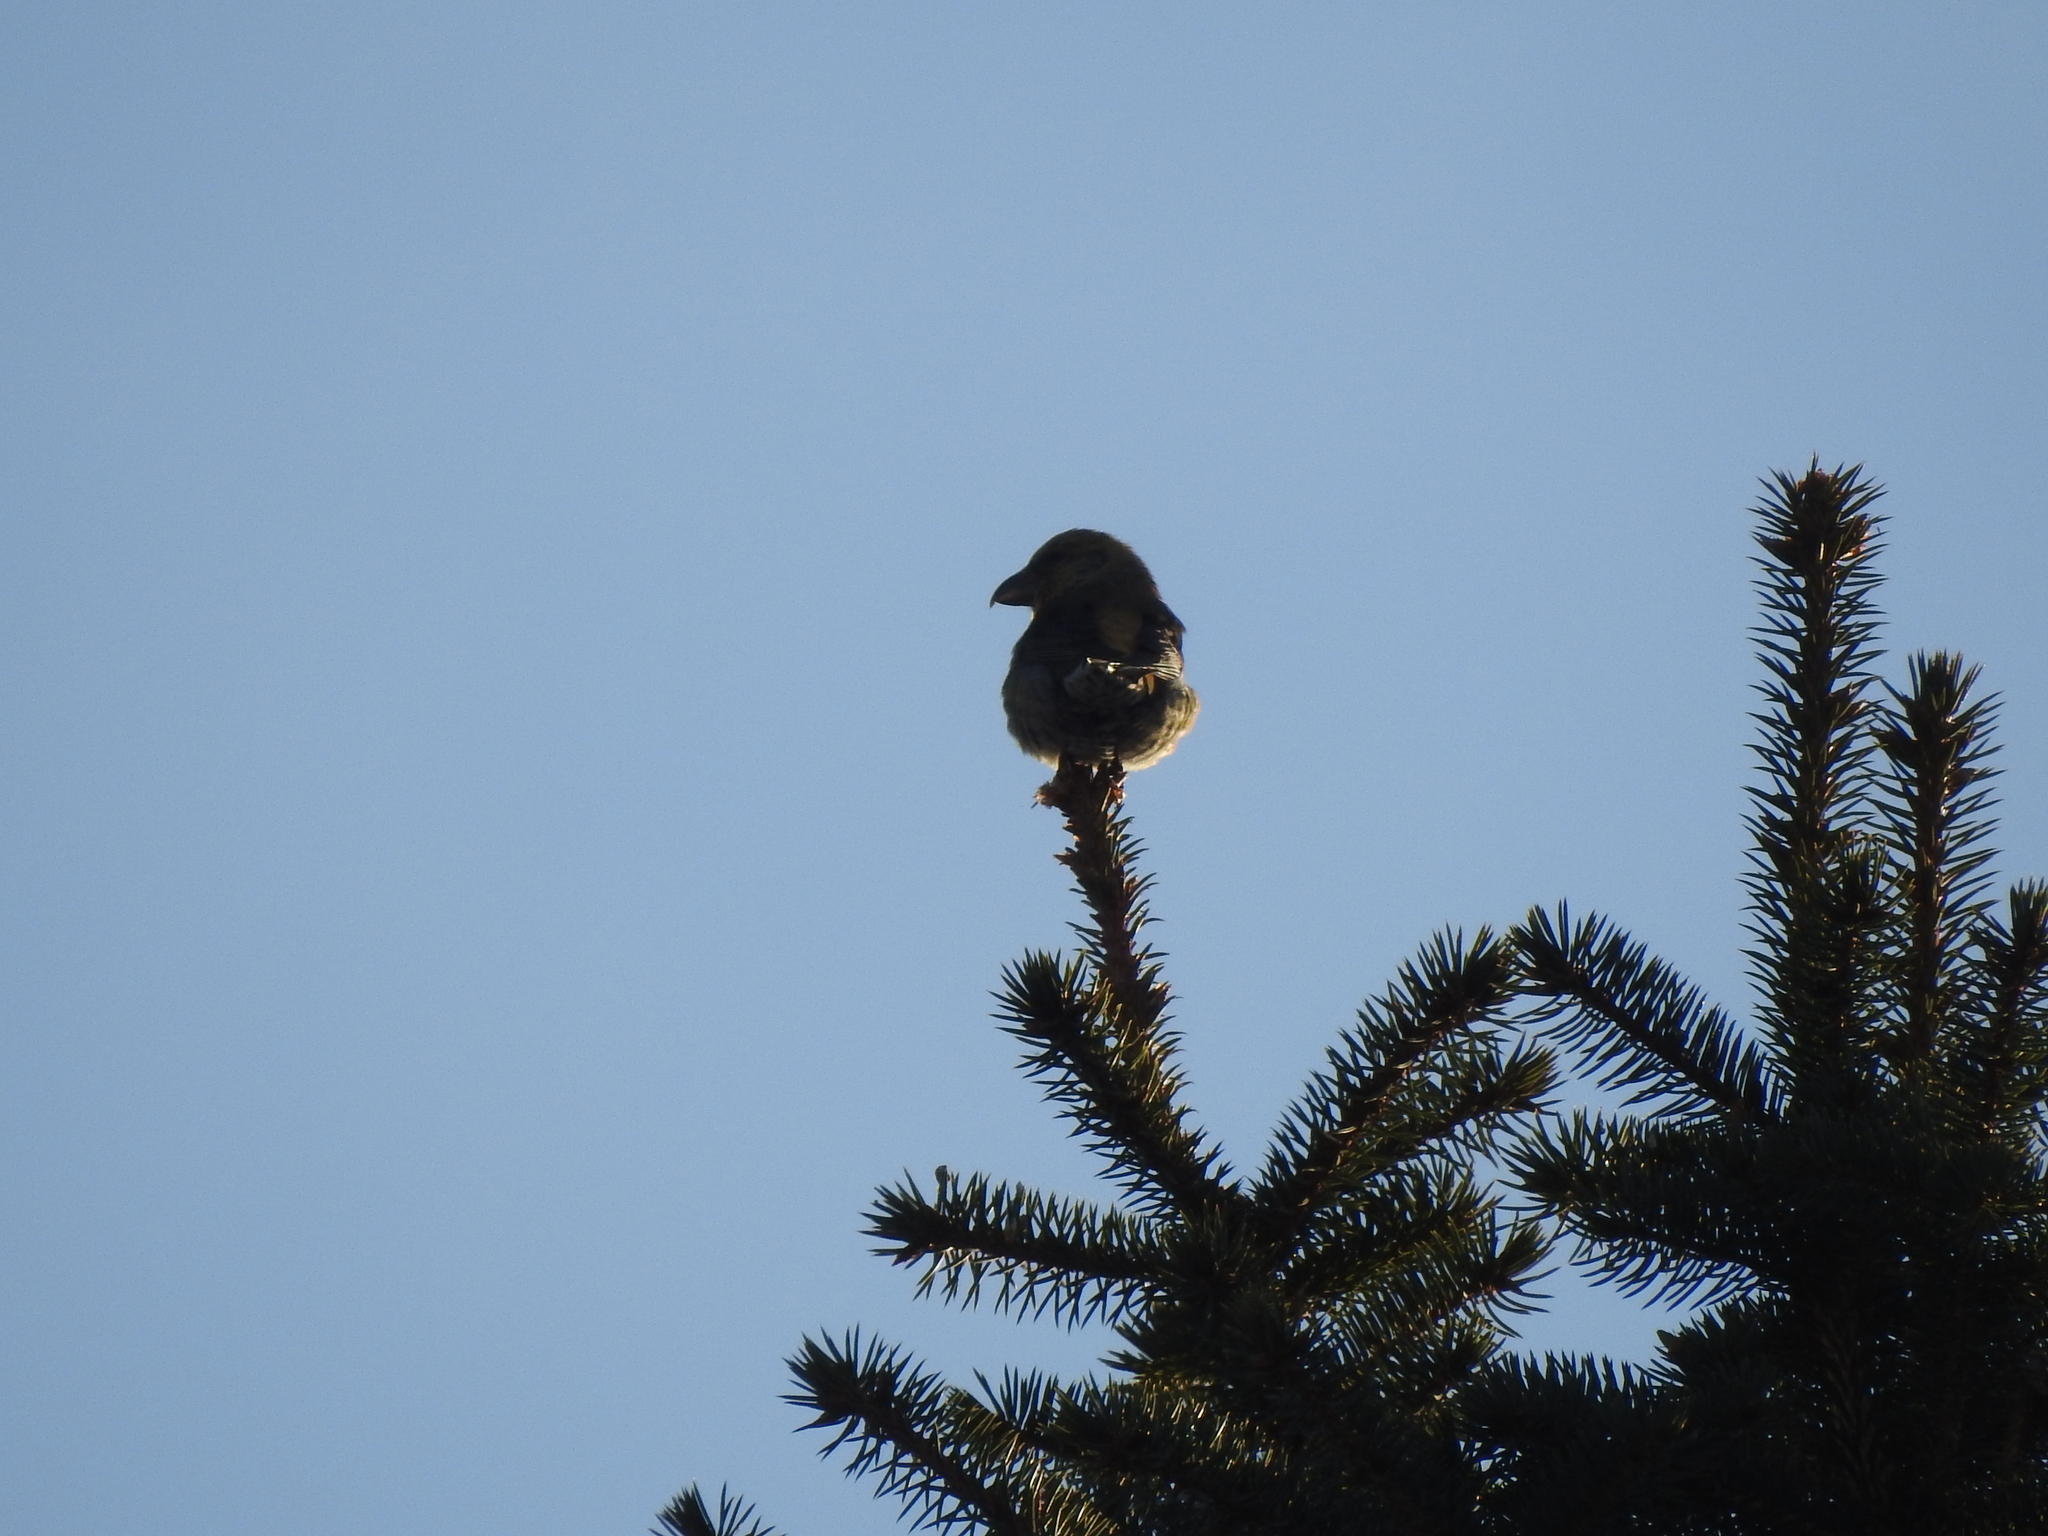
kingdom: Animalia
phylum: Chordata
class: Aves
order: Passeriformes
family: Fringillidae
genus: Loxia
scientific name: Loxia curvirostra
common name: Red crossbill
